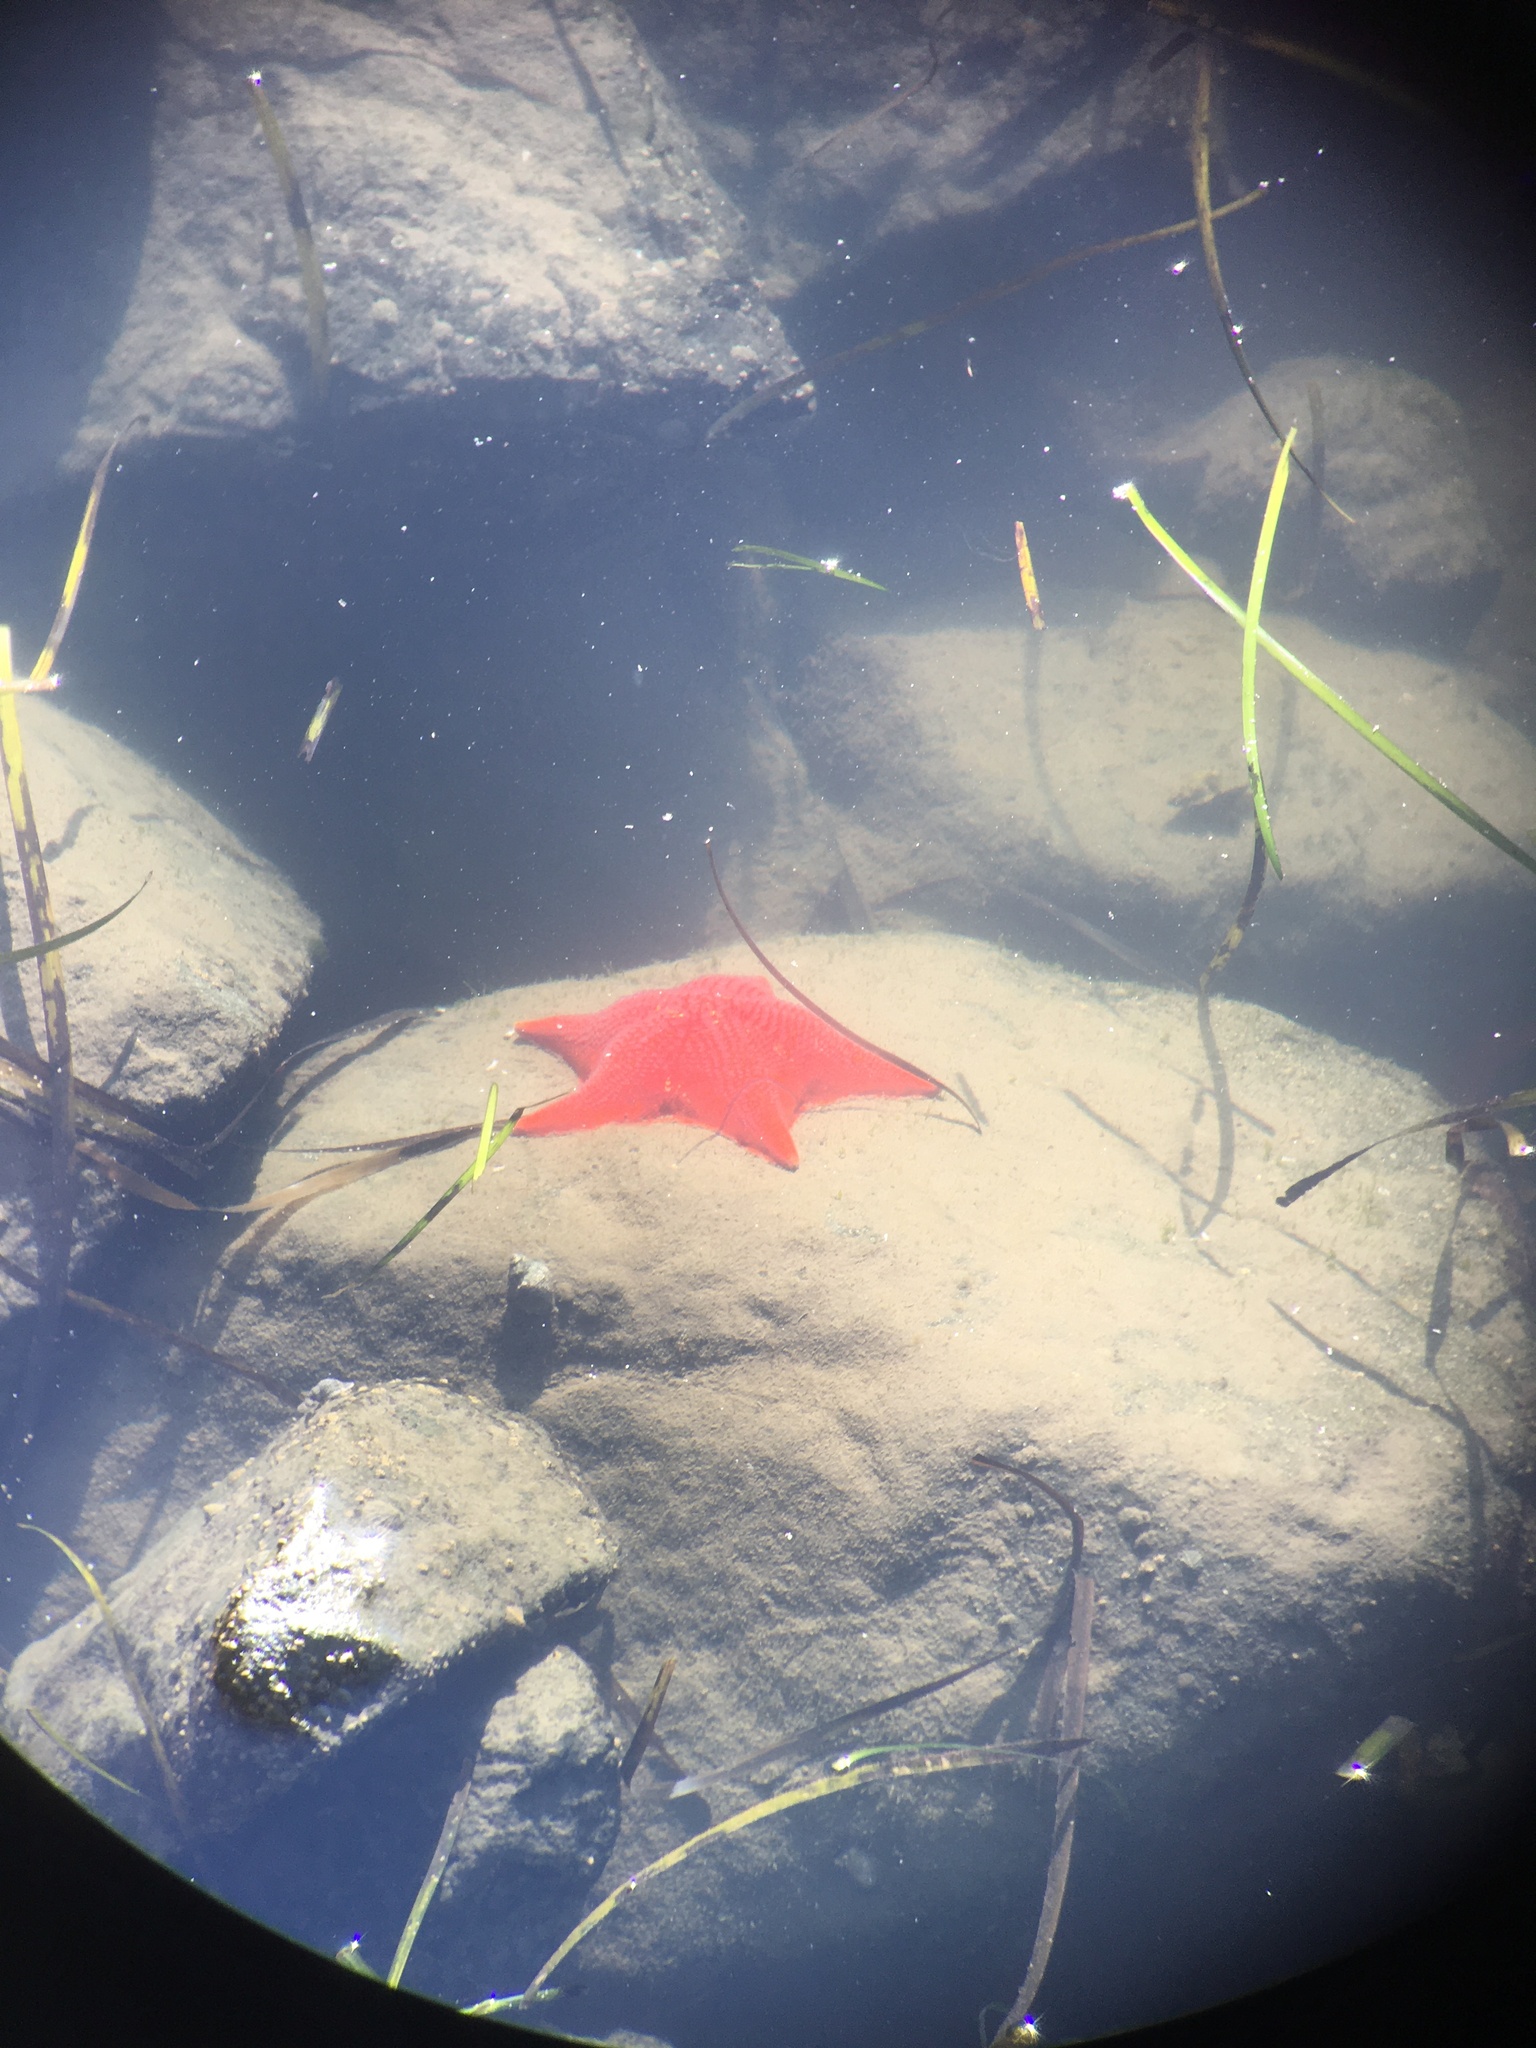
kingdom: Animalia
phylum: Echinodermata
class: Asteroidea
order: Valvatida
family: Asterinidae
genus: Patiria
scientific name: Patiria miniata
